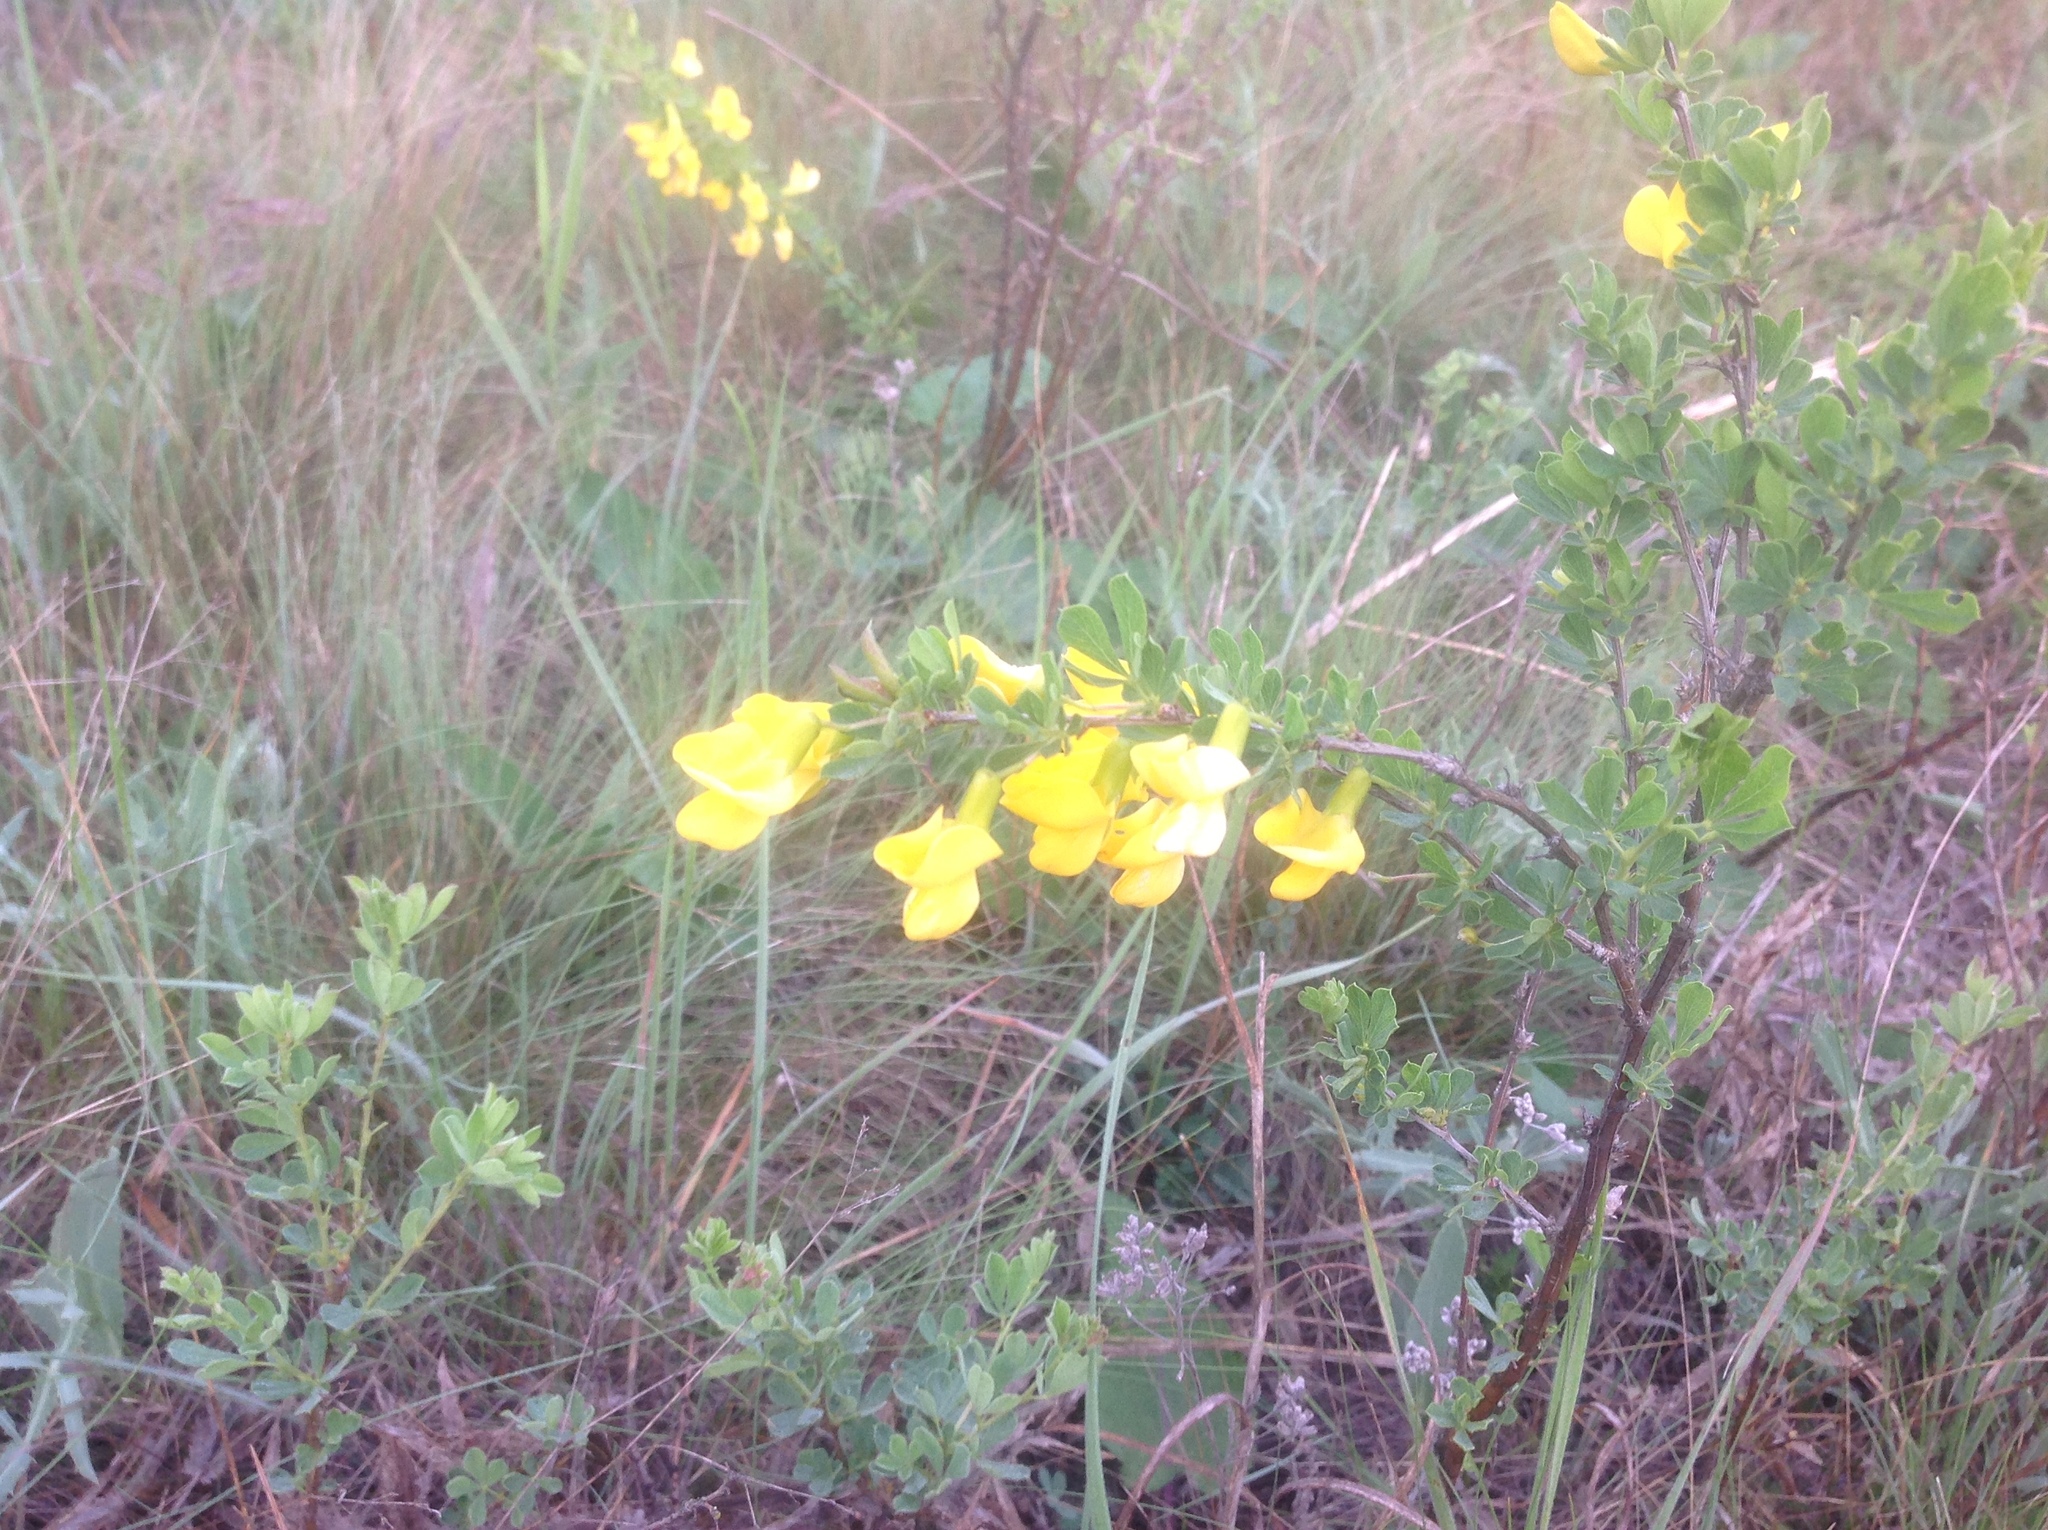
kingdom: Plantae
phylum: Tracheophyta
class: Magnoliopsida
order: Fabales
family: Fabaceae
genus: Caragana
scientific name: Caragana frutex
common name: Russian peashrub
